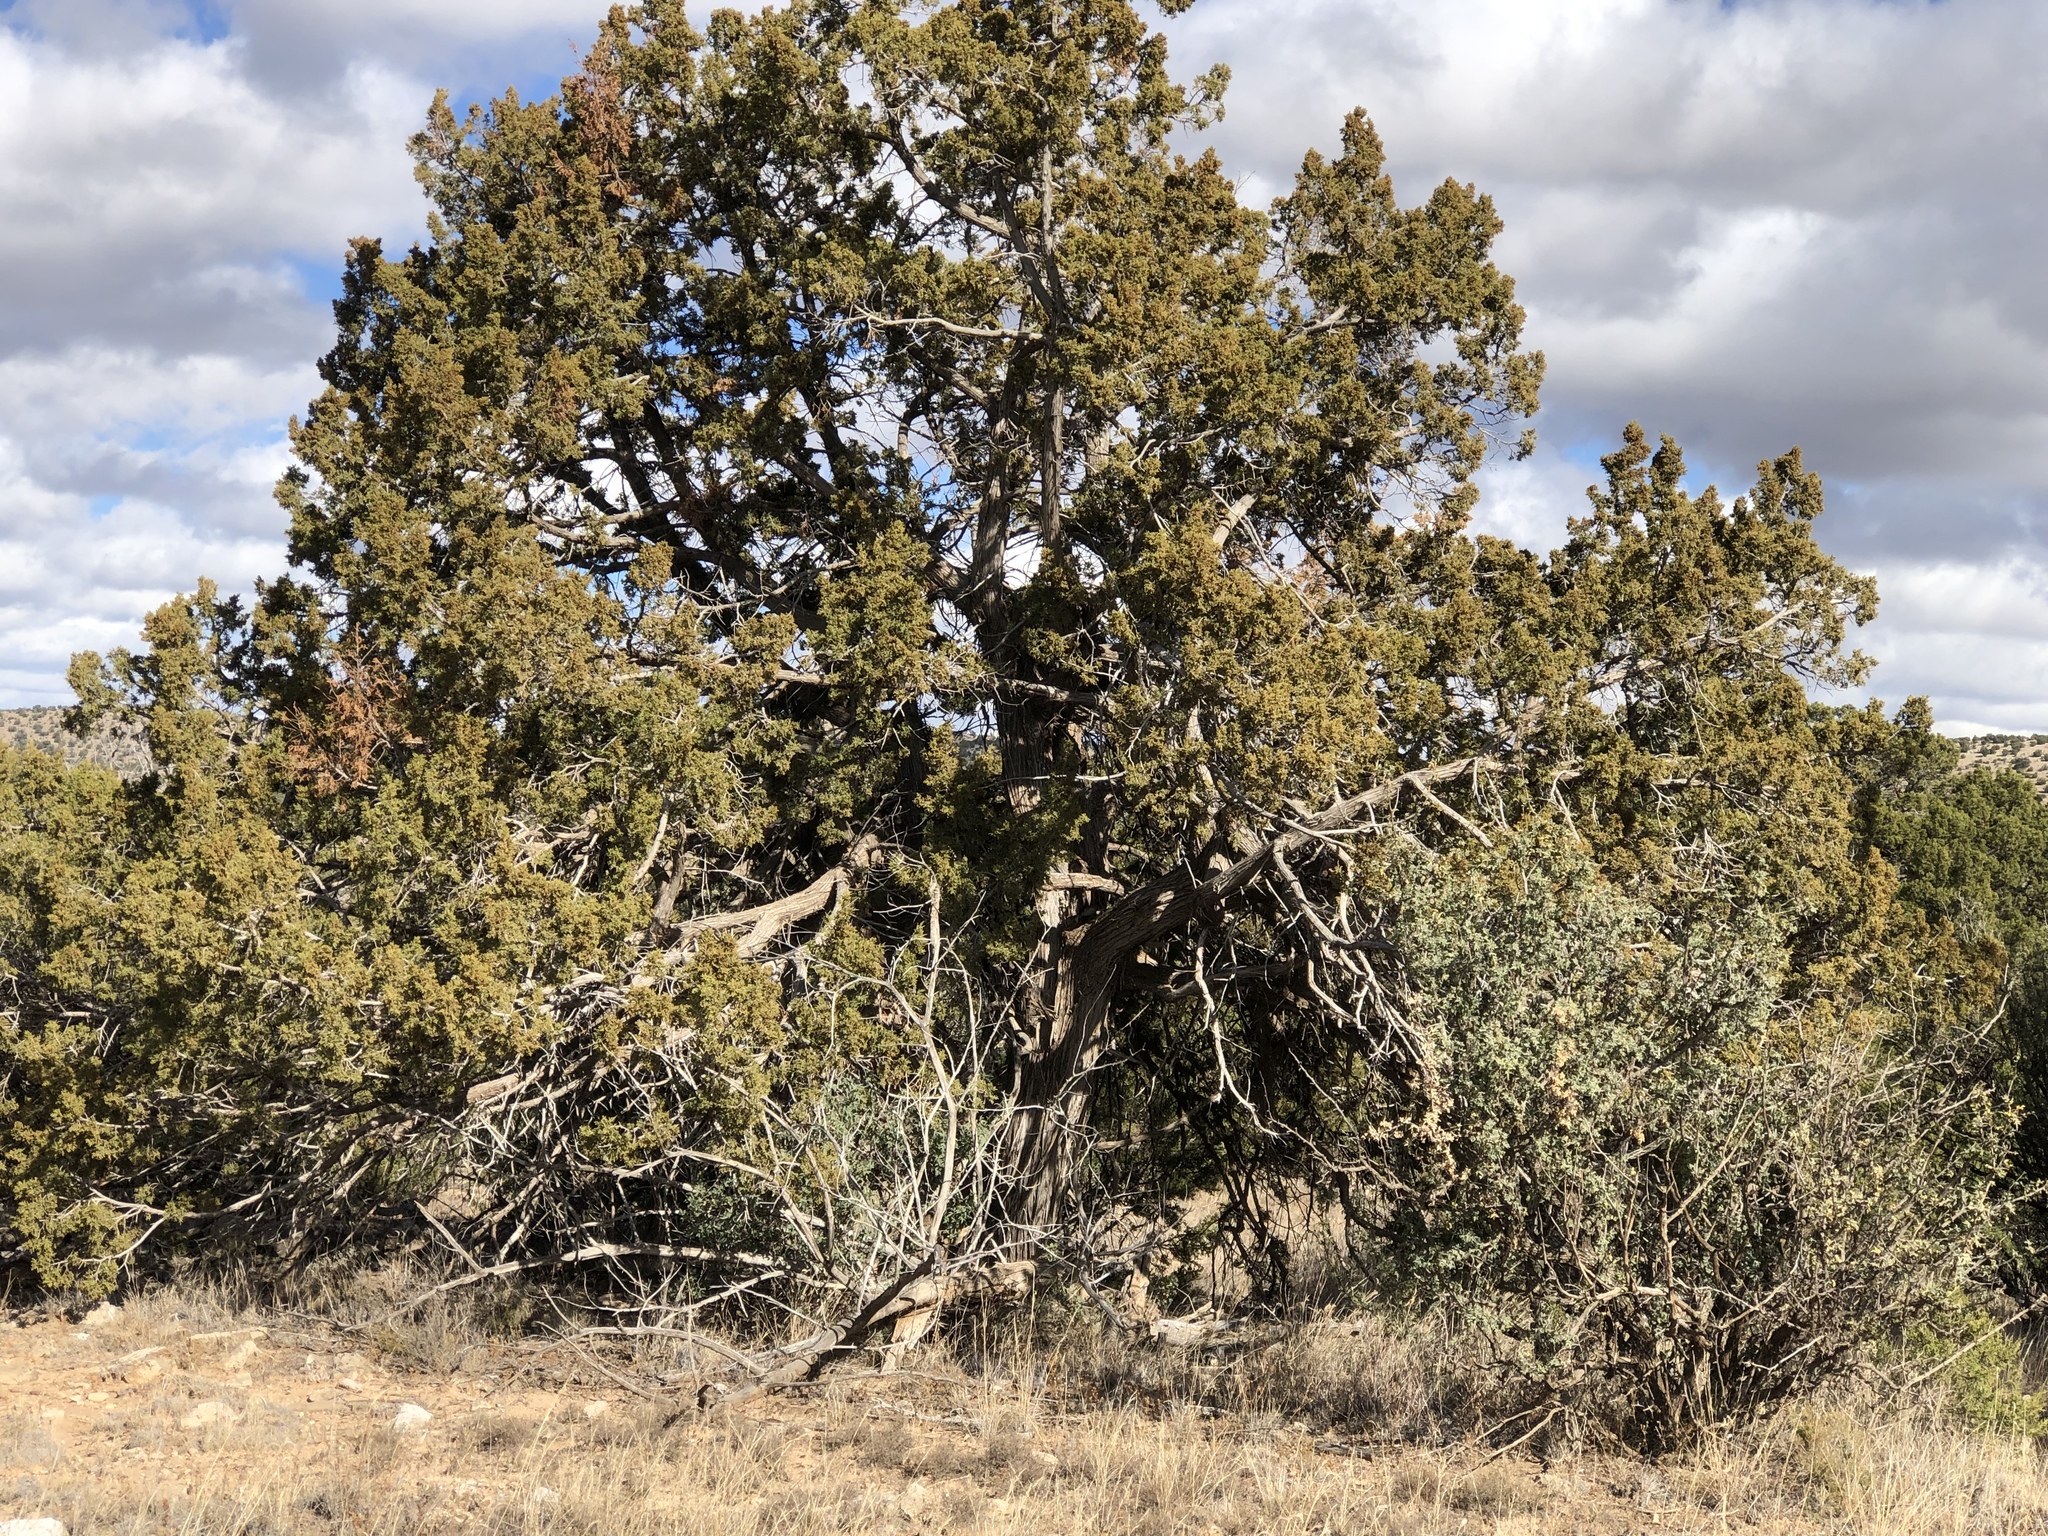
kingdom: Plantae
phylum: Tracheophyta
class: Pinopsida
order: Pinales
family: Cupressaceae
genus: Juniperus
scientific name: Juniperus monosperma
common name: One-seed juniper
